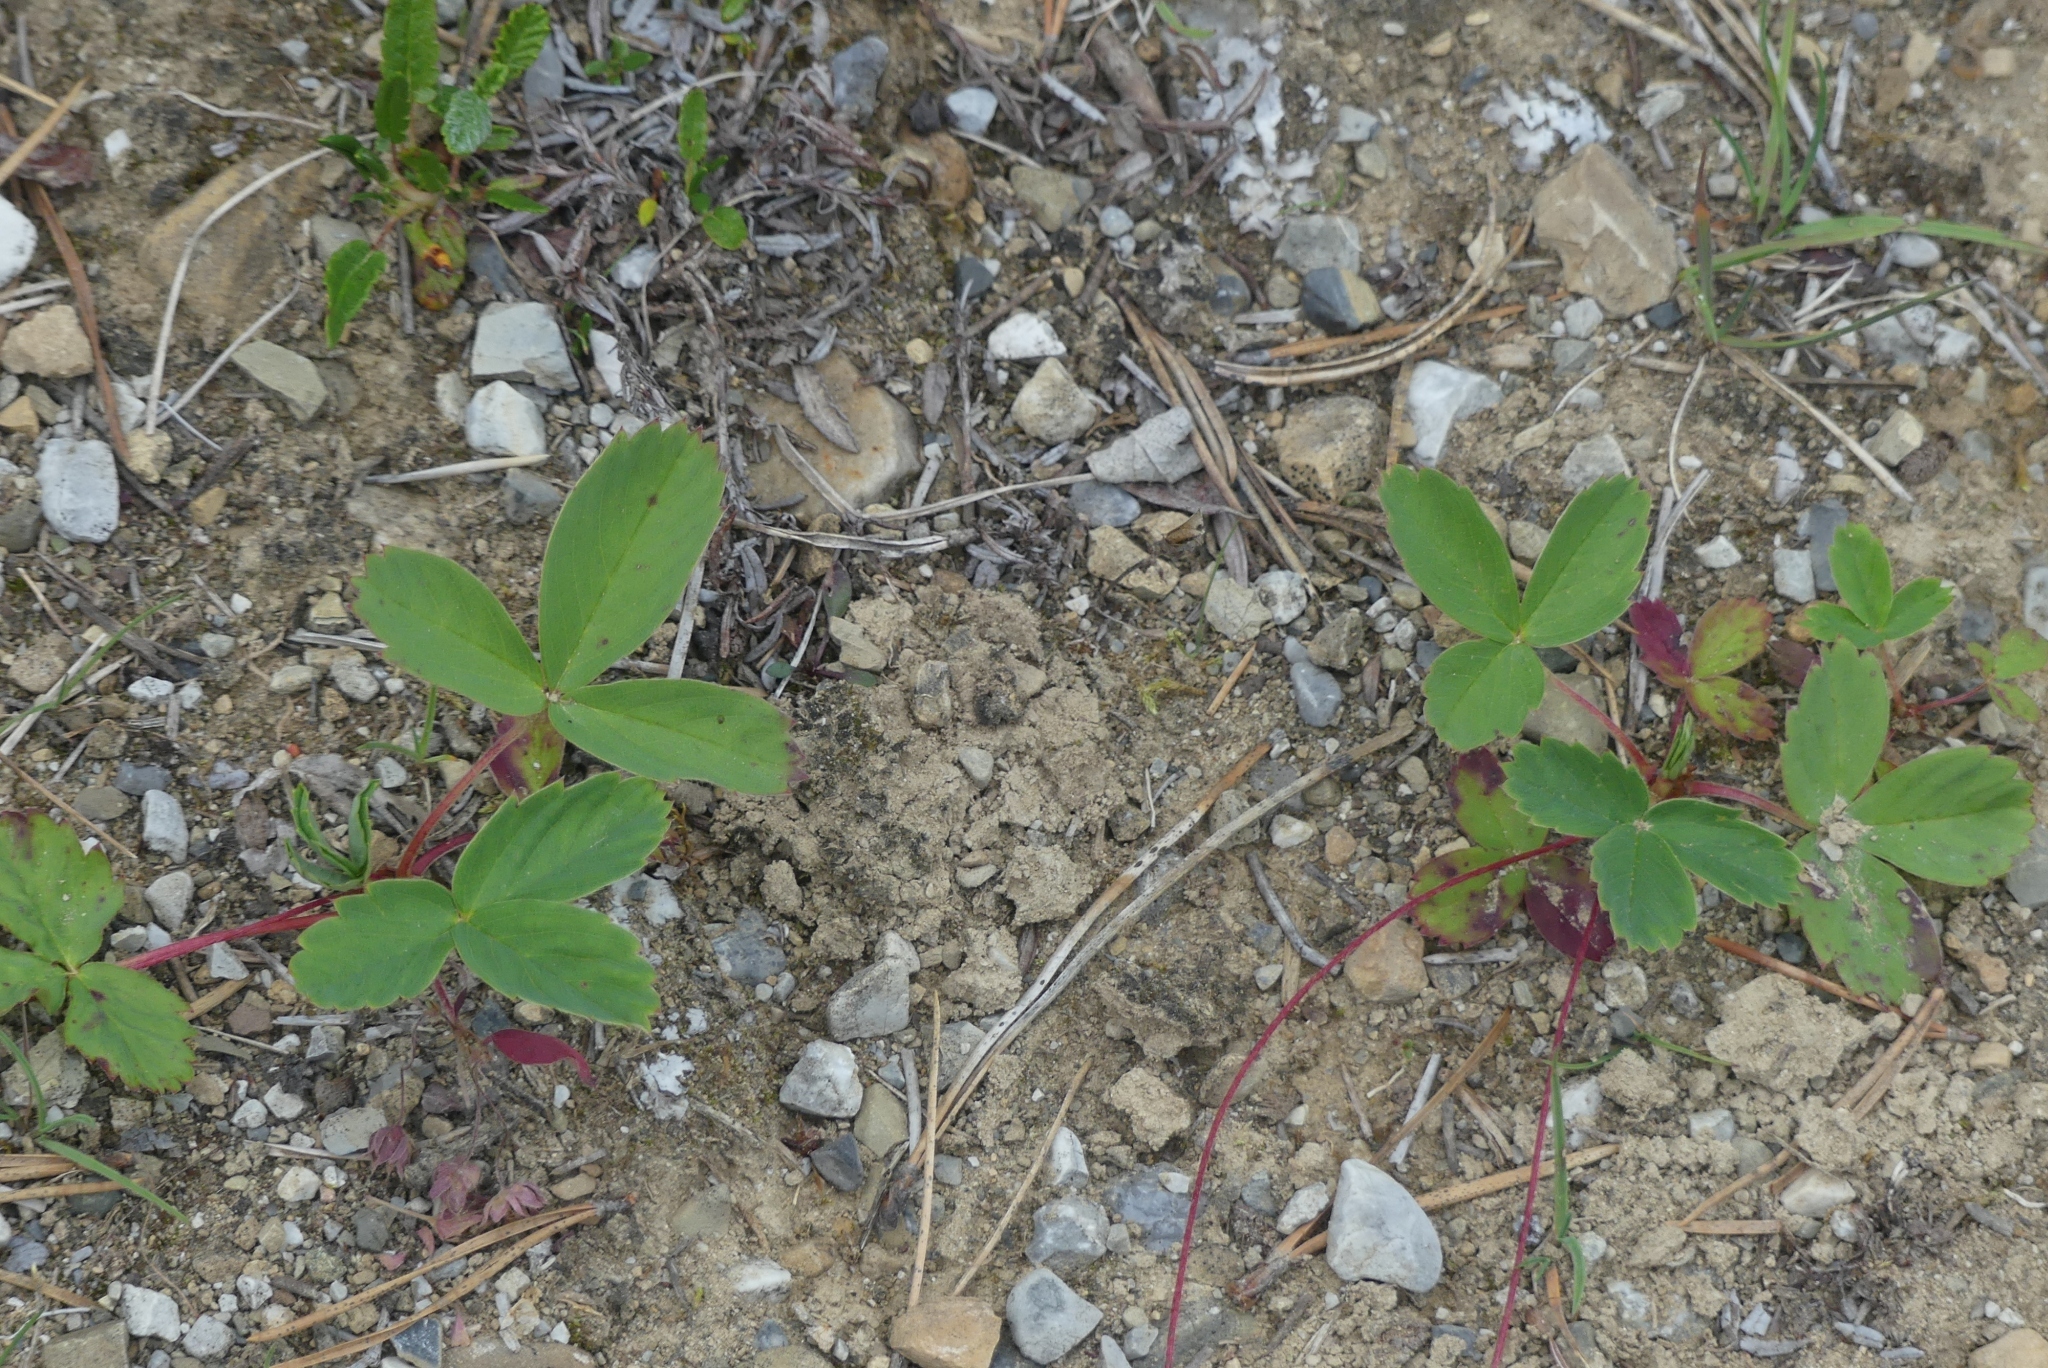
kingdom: Plantae
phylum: Tracheophyta
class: Magnoliopsida
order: Rosales
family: Rosaceae
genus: Fragaria
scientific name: Fragaria virginiana
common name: Thickleaved wild strawberry
